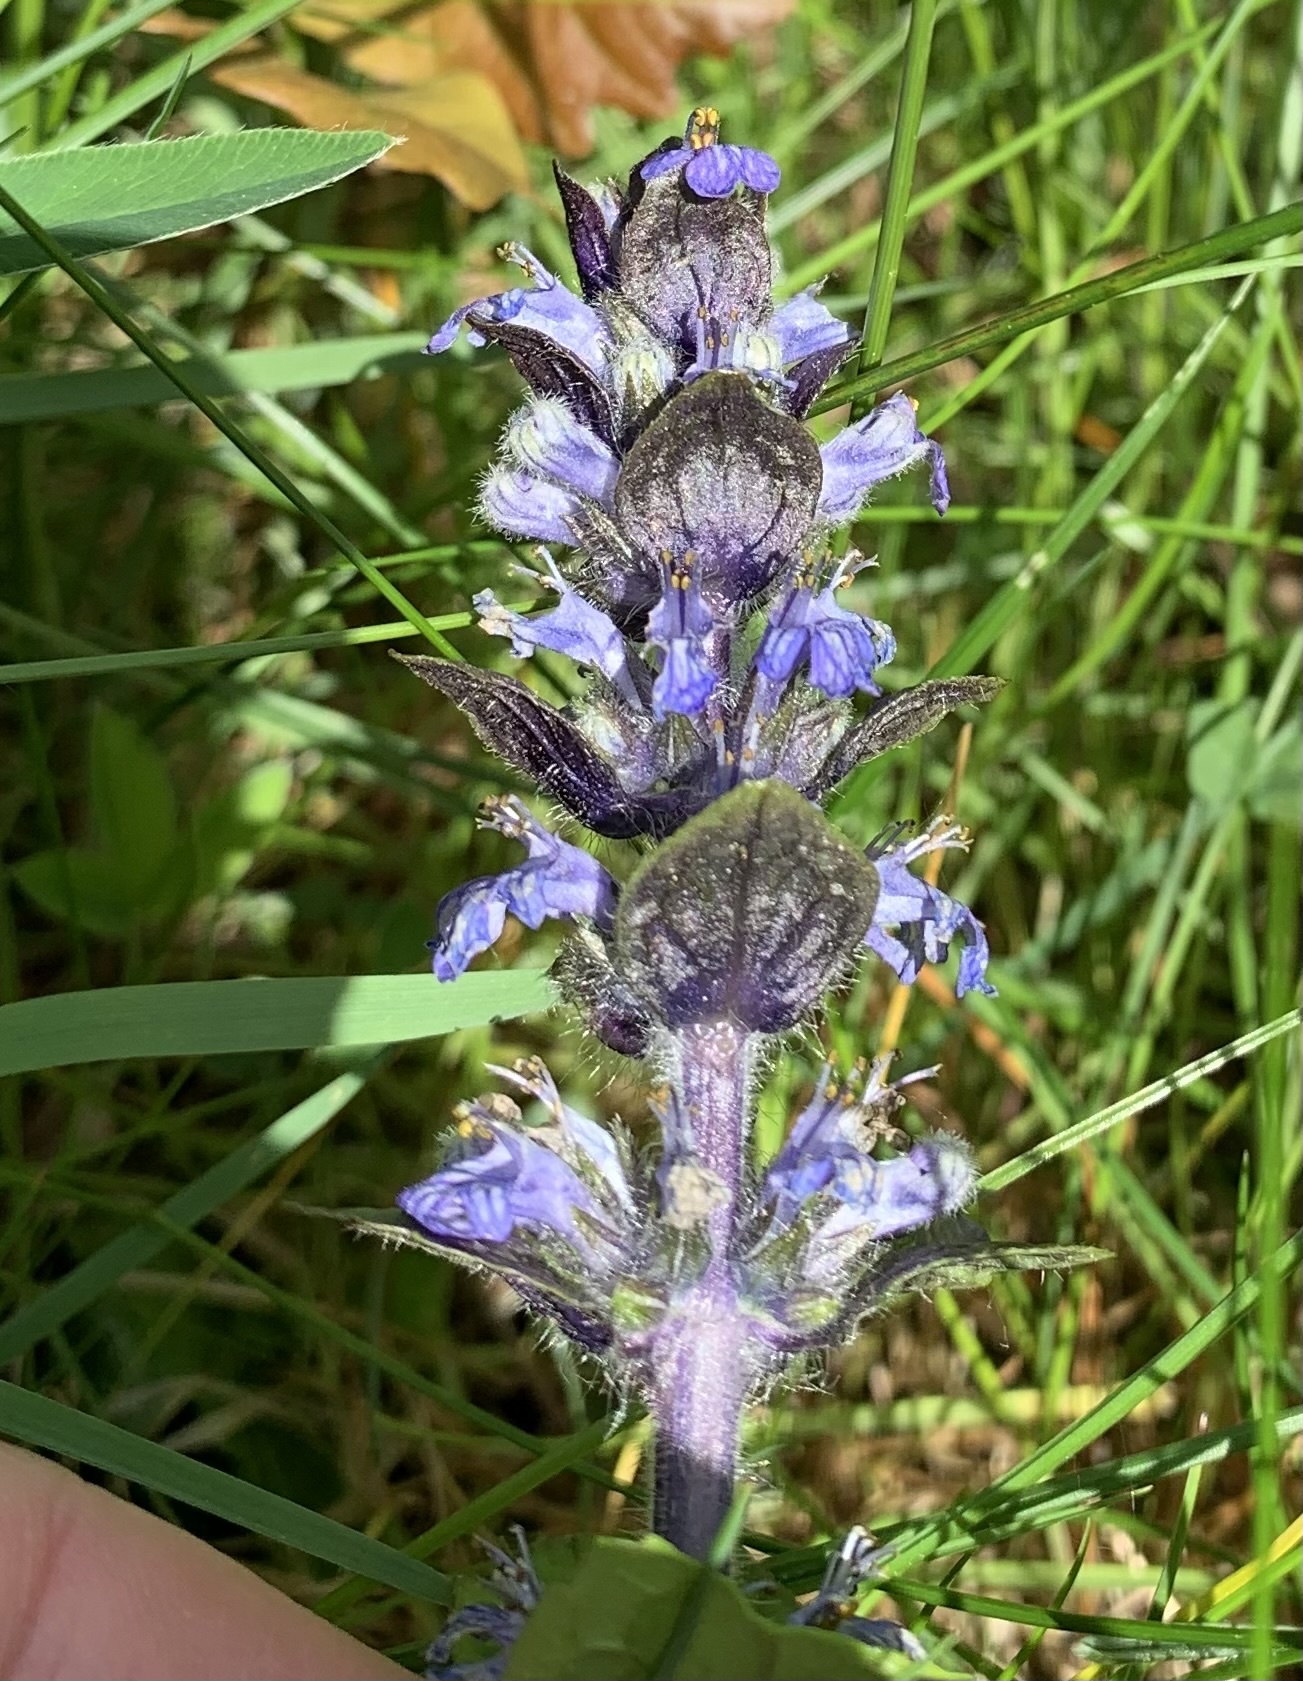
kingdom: Plantae
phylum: Tracheophyta
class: Magnoliopsida
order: Lamiales
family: Lamiaceae
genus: Ajuga
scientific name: Ajuga reptans
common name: Bugle
